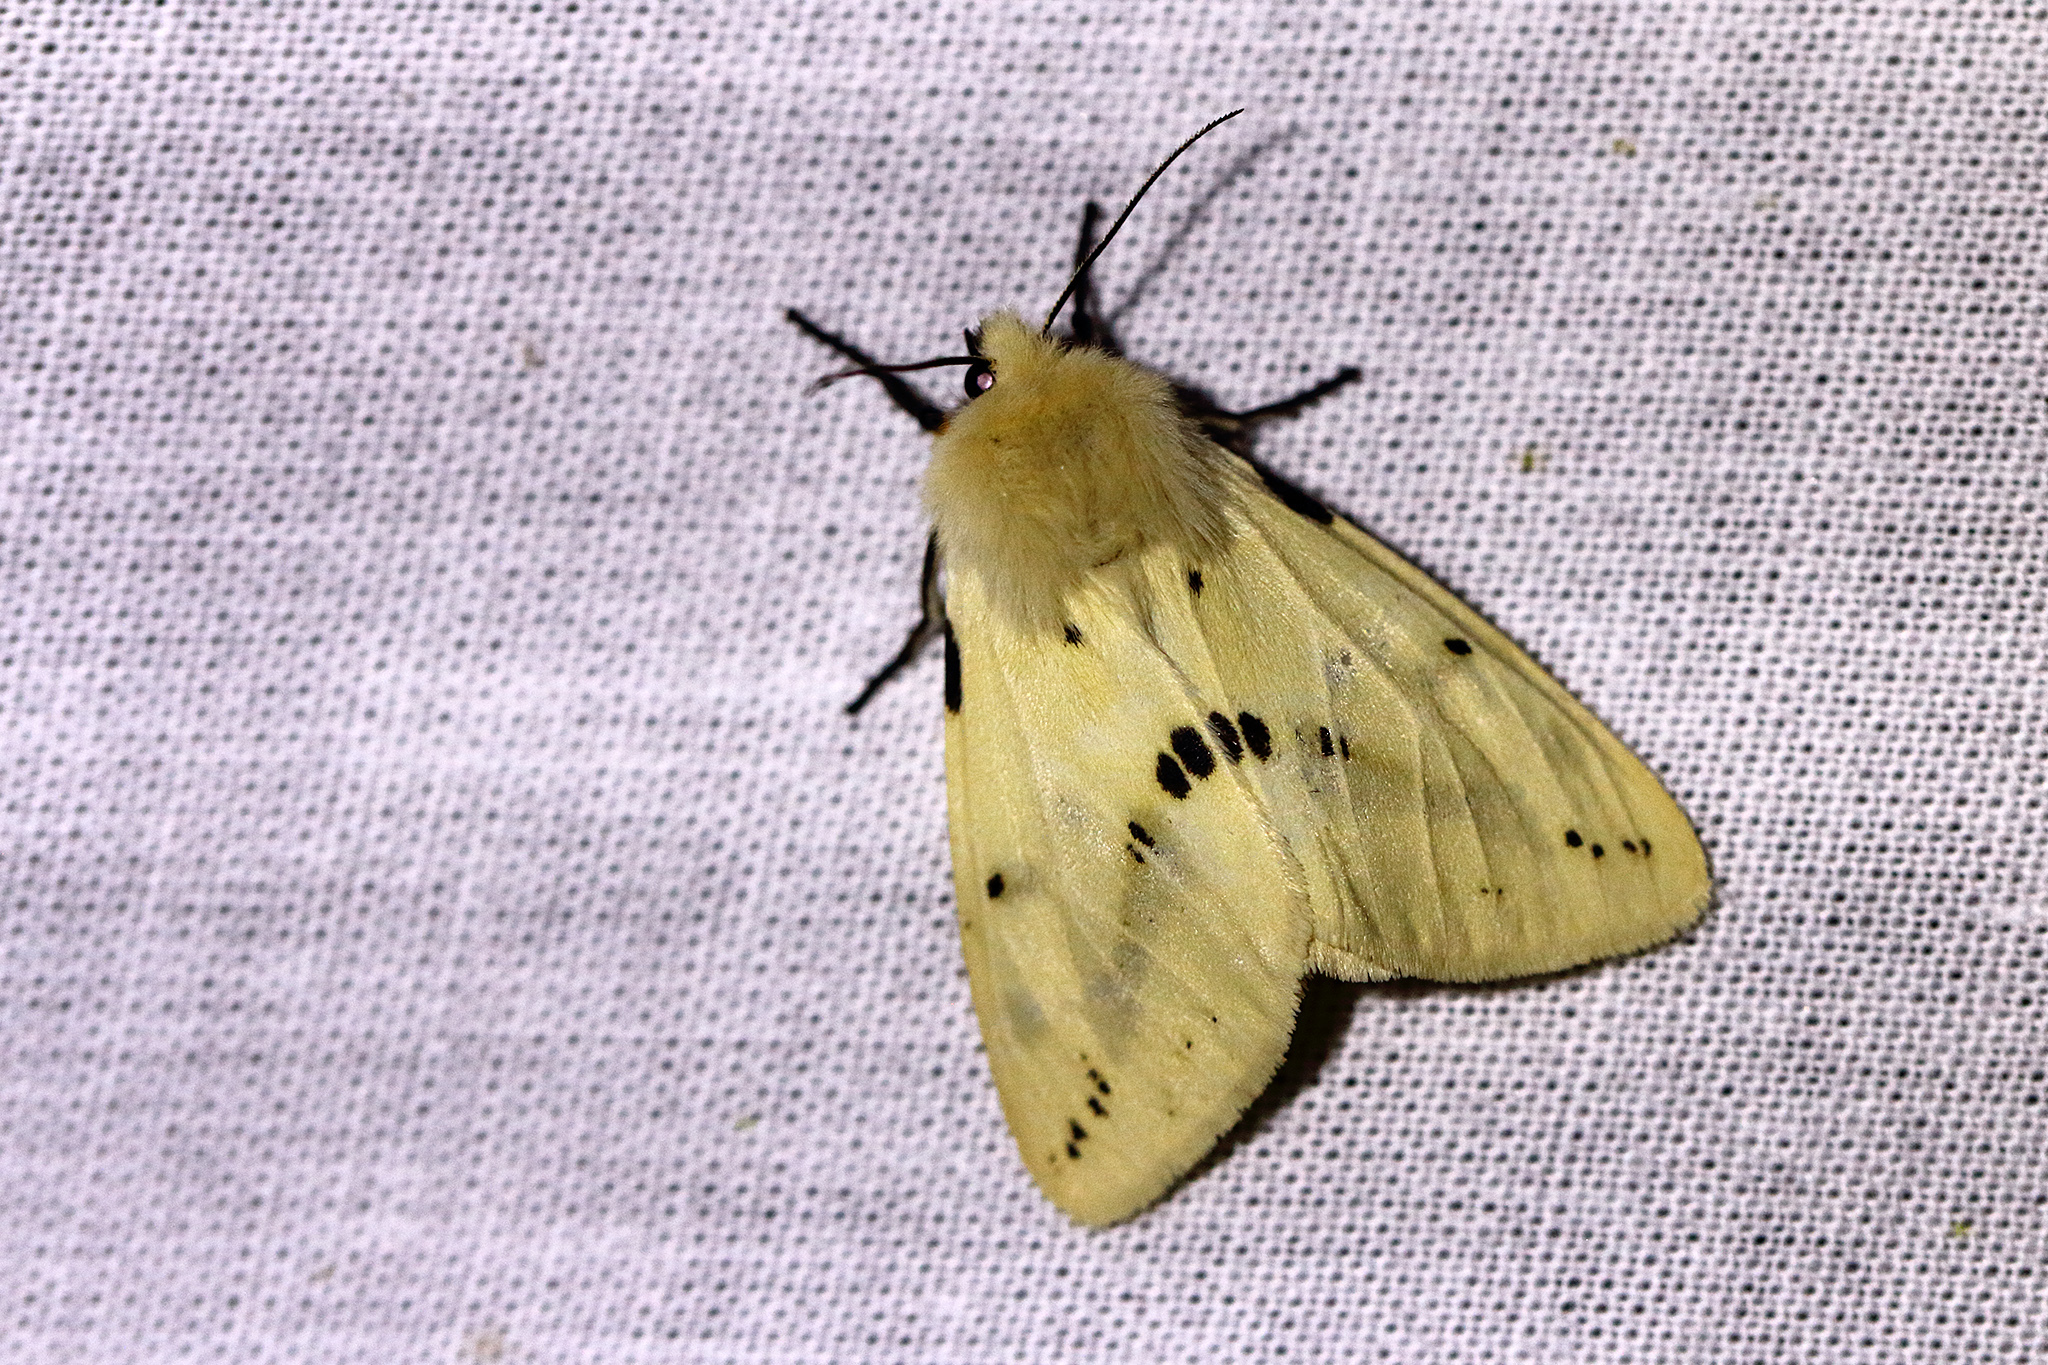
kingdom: Animalia
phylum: Arthropoda
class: Insecta
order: Lepidoptera
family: Erebidae
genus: Spilarctia
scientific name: Spilarctia lutea
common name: Buff ermine
